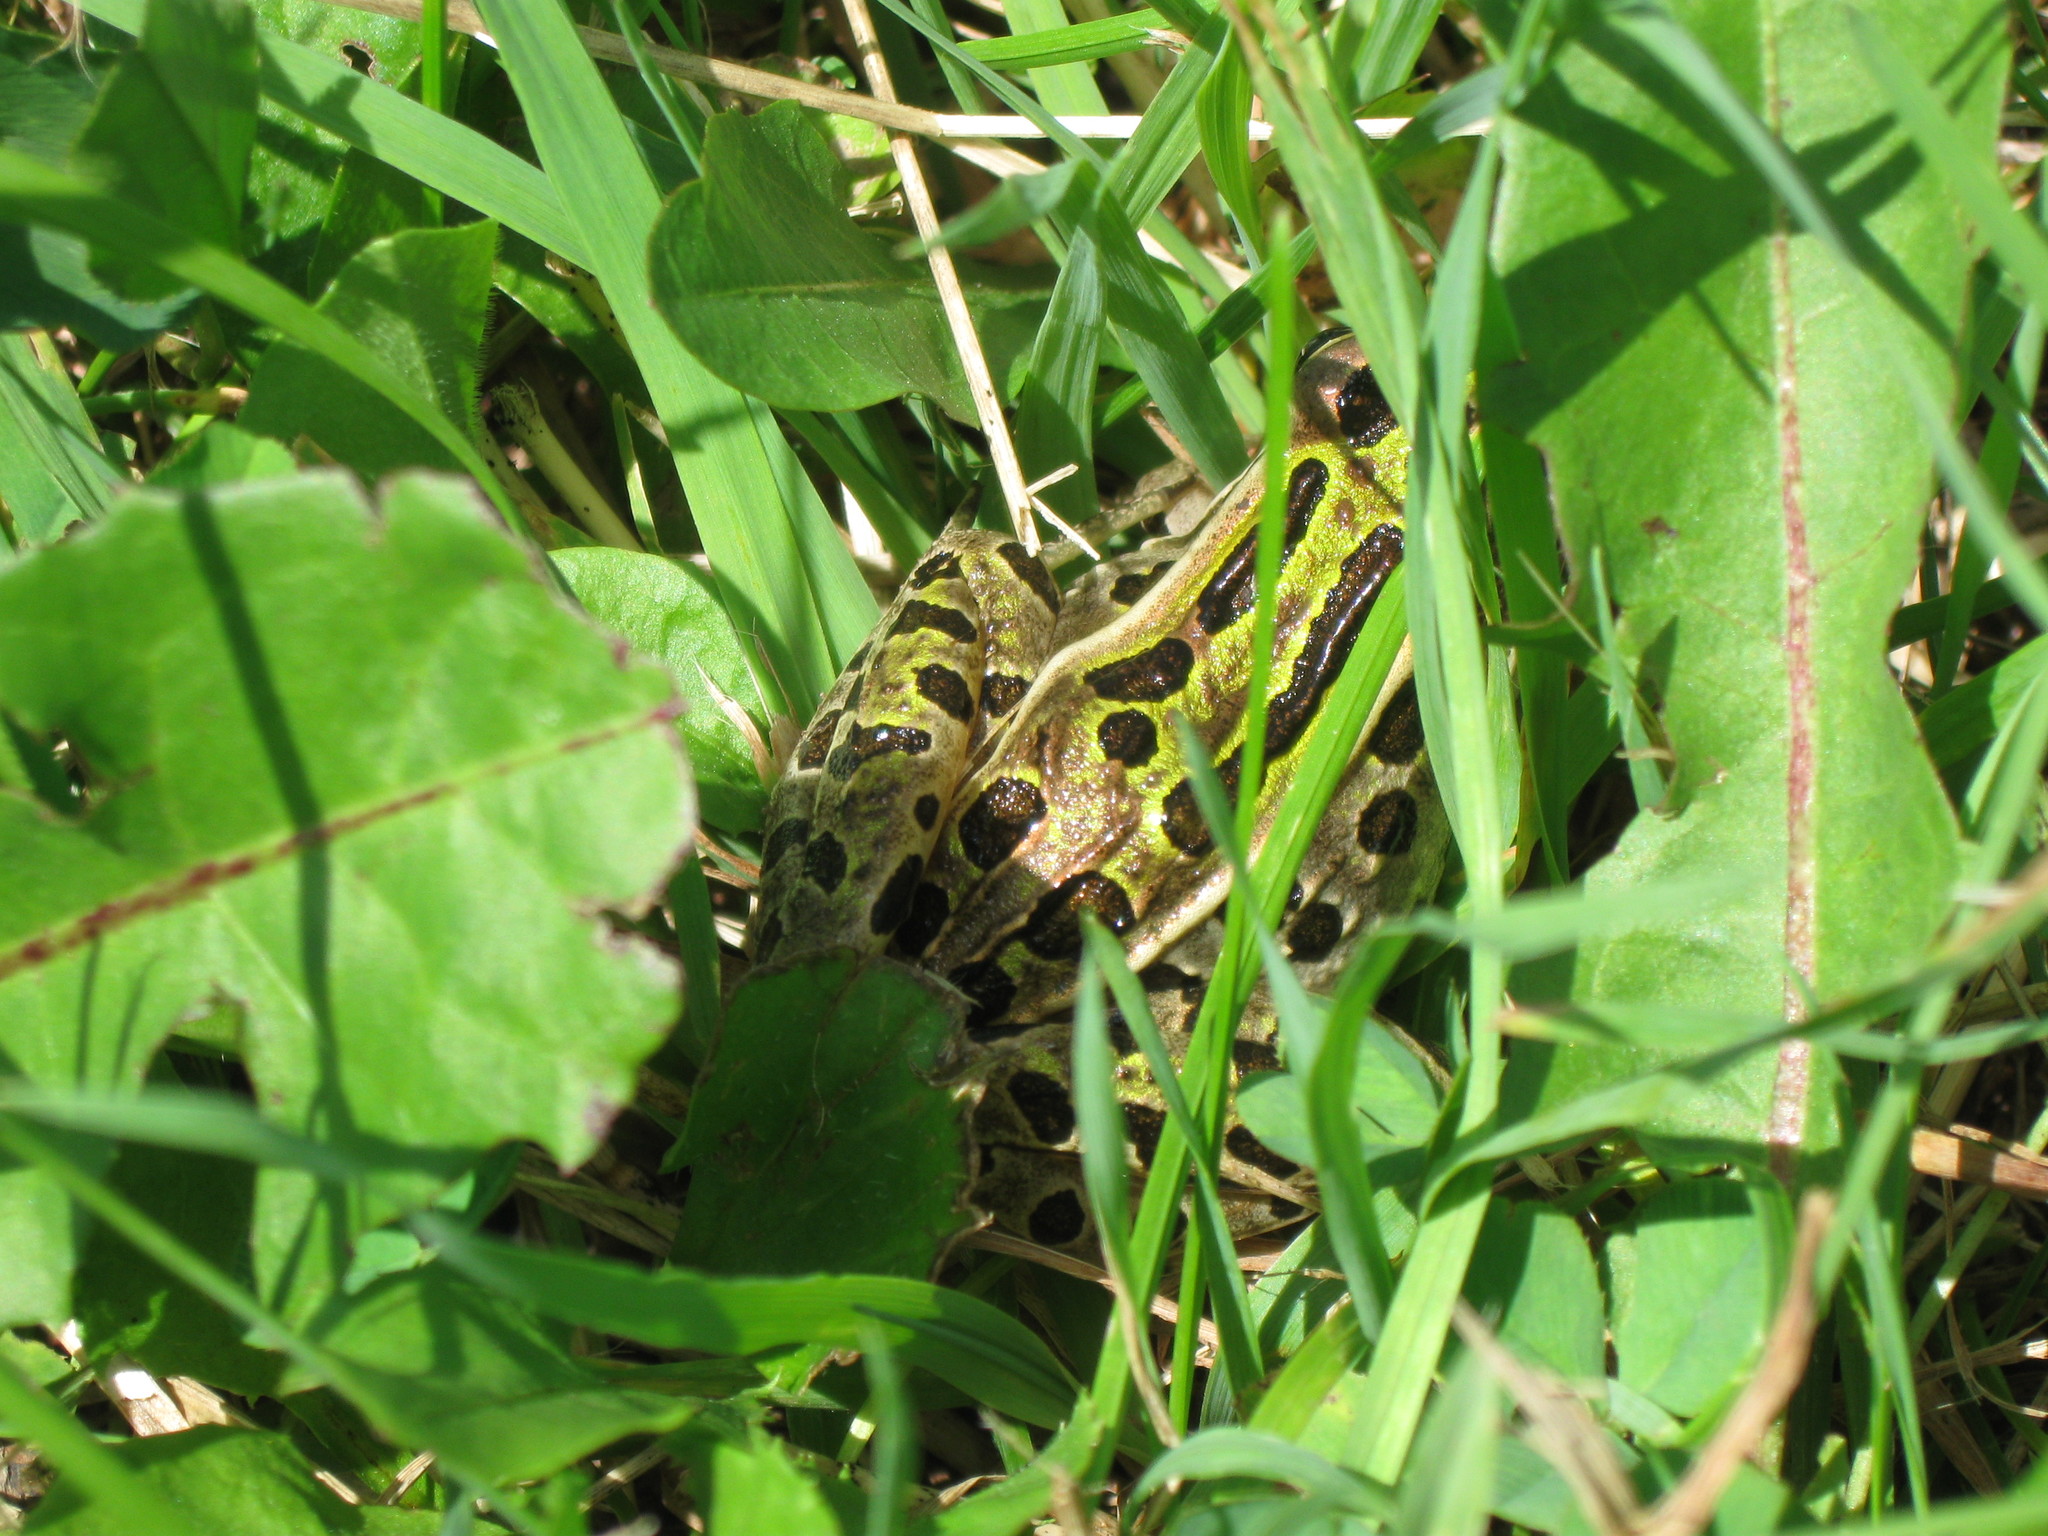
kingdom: Animalia
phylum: Chordata
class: Amphibia
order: Anura
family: Ranidae
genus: Lithobates
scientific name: Lithobates pipiens
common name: Northern leopard frog
